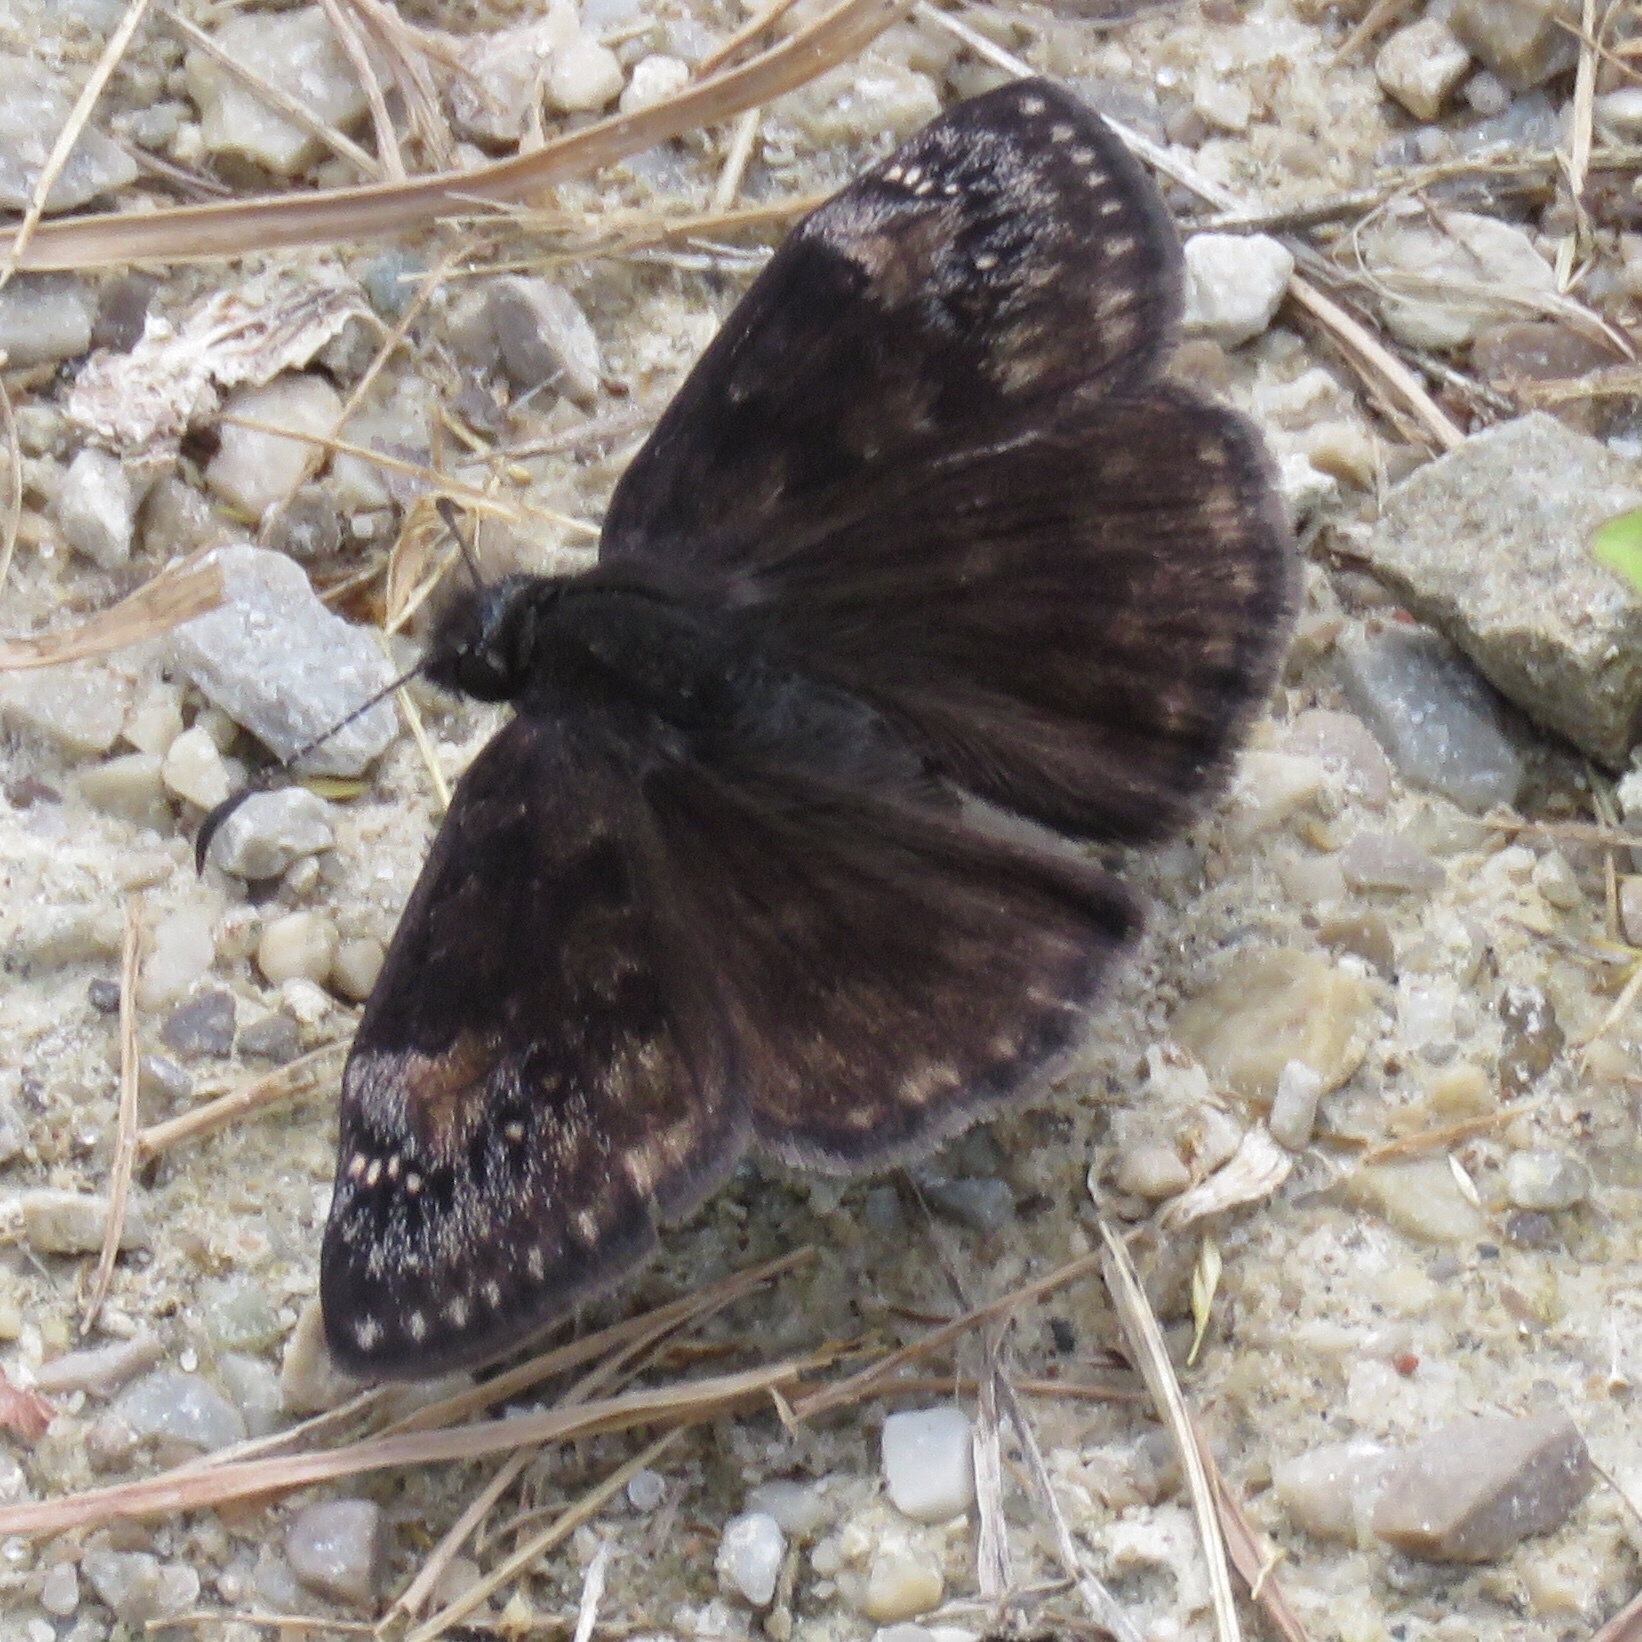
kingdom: Animalia
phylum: Arthropoda
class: Insecta
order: Lepidoptera
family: Hesperiidae
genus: Erynnis
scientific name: Erynnis baptisiae
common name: Wild indigo duskywing
